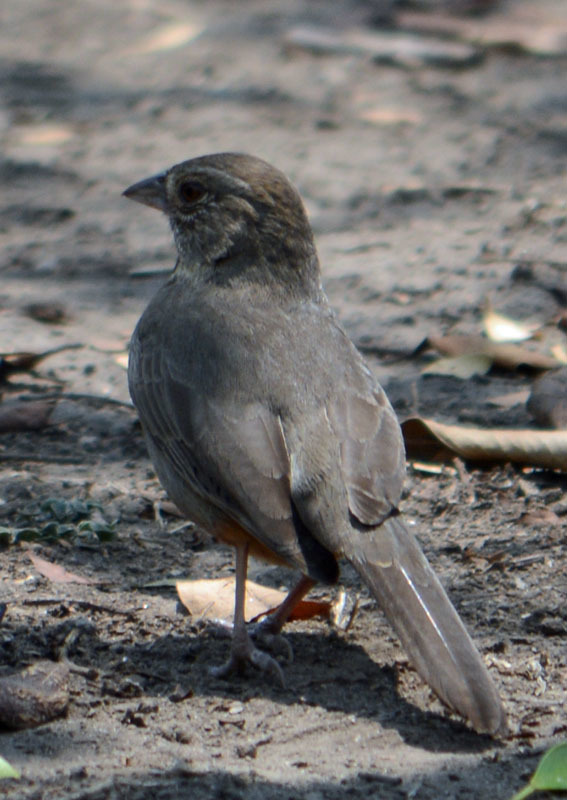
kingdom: Animalia
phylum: Chordata
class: Aves
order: Passeriformes
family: Passerellidae
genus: Melozone
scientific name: Melozone fusca
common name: Canyon towhee
